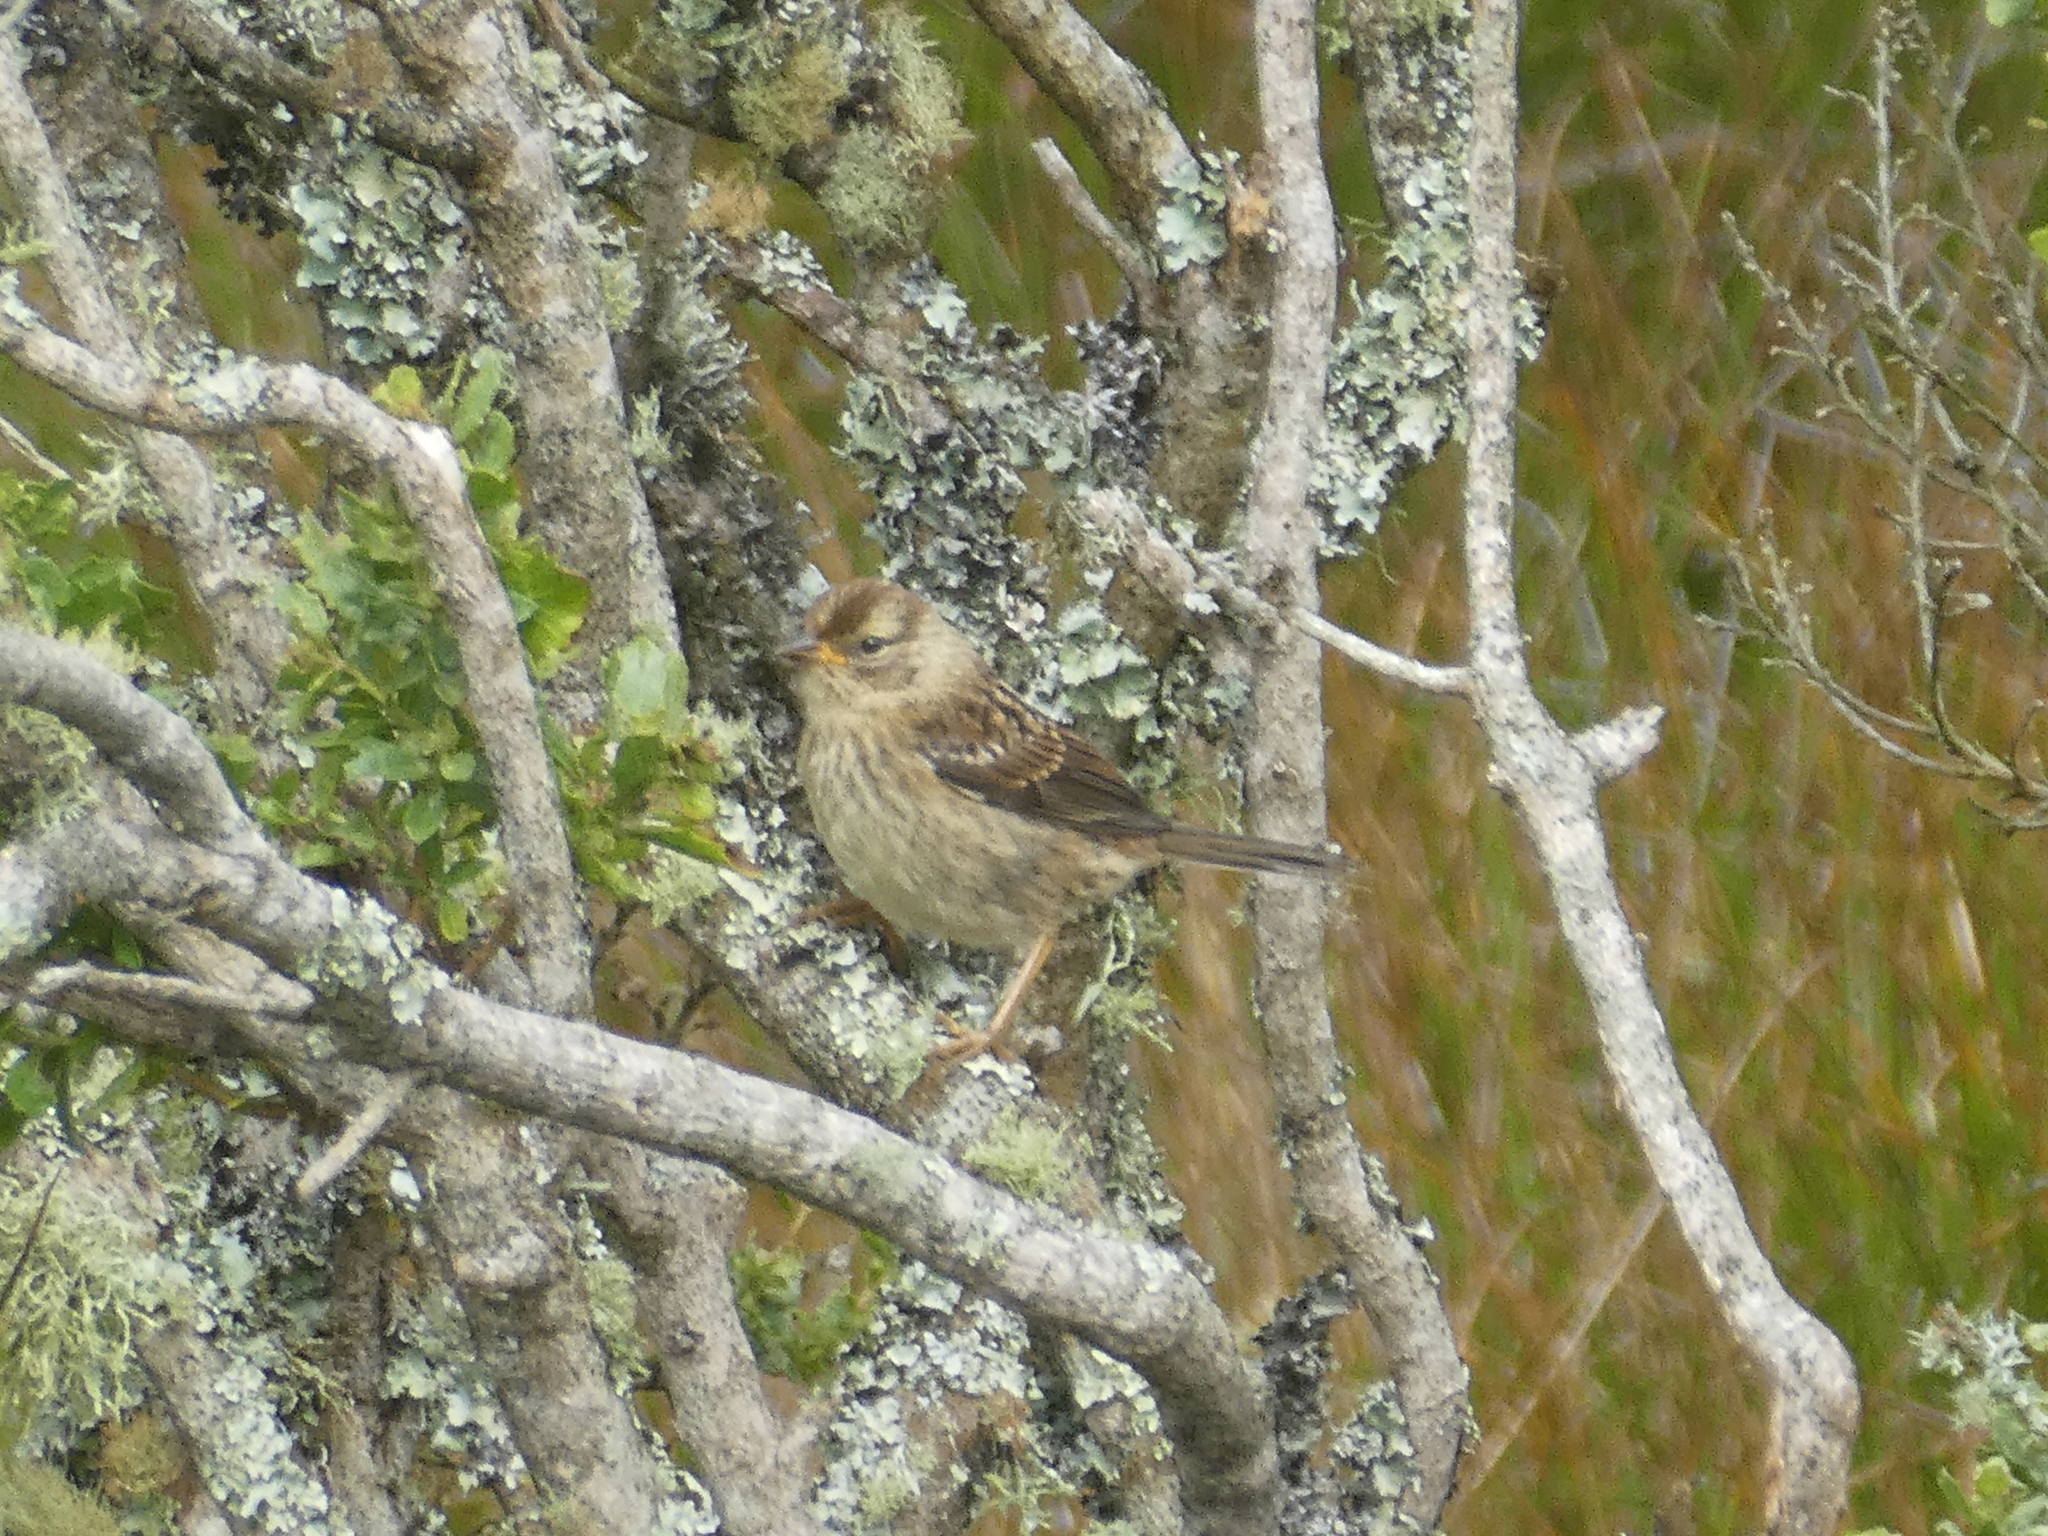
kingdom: Animalia
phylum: Chordata
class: Aves
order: Passeriformes
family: Passerellidae
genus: Zonotrichia
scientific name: Zonotrichia leucophrys
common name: White-crowned sparrow
